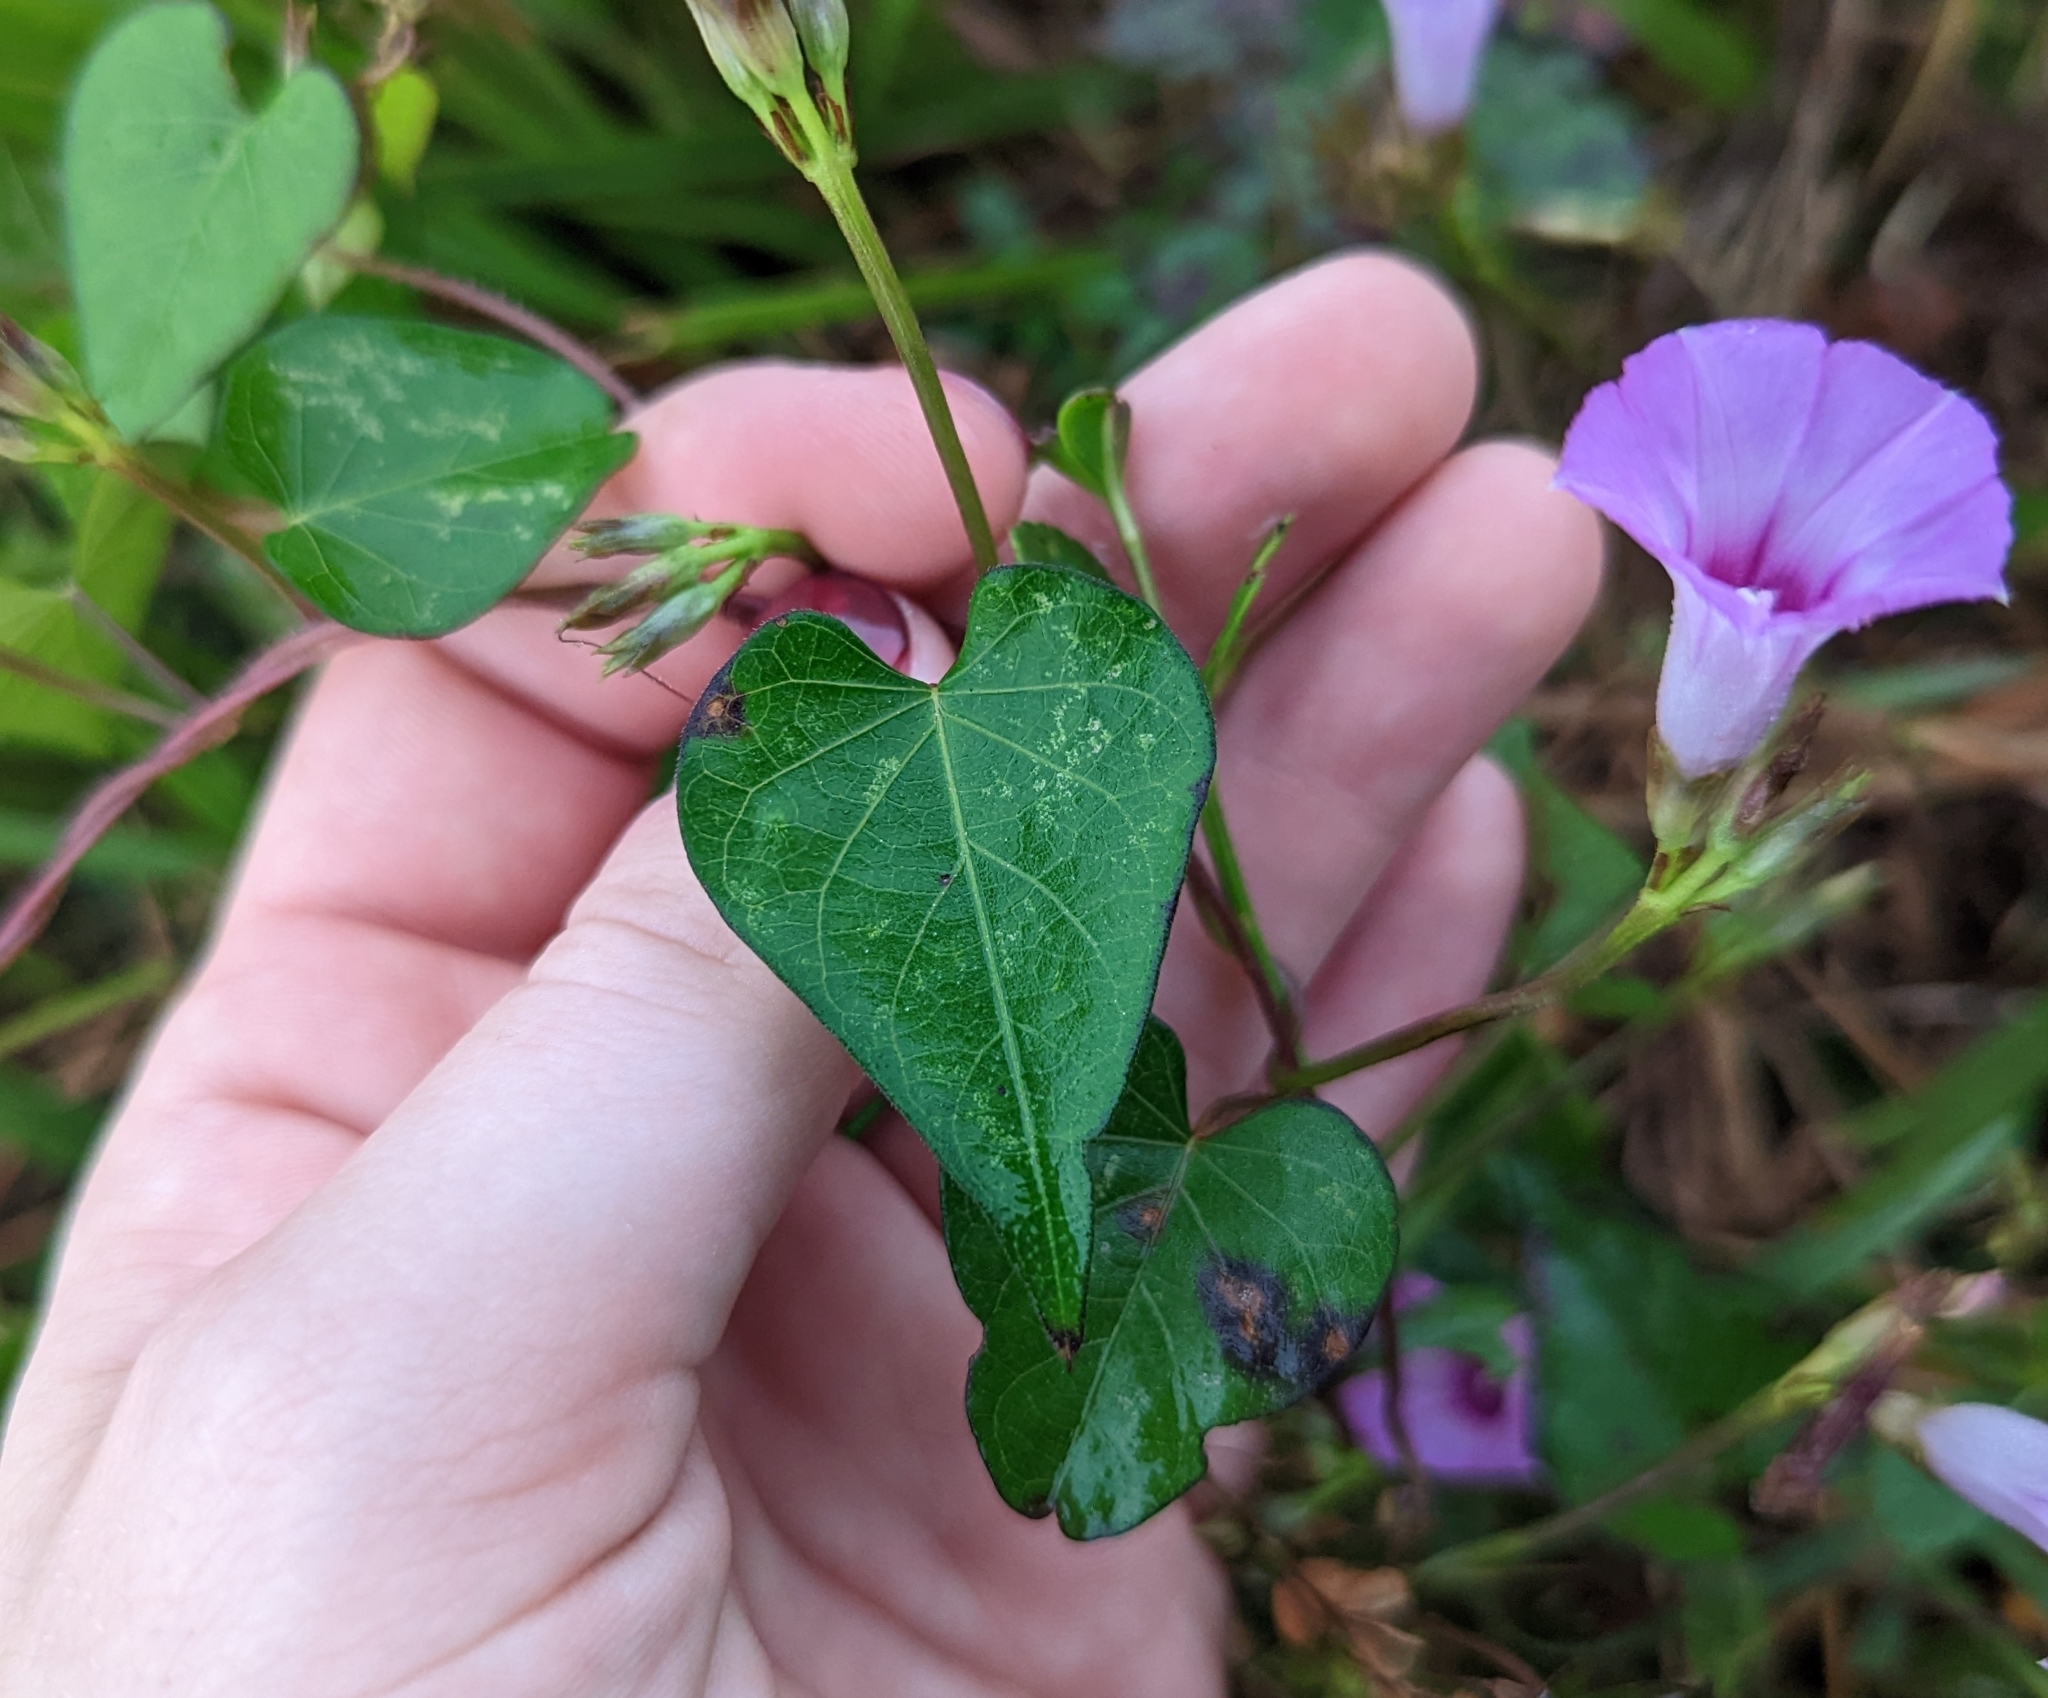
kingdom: Plantae
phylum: Tracheophyta
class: Magnoliopsida
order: Solanales
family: Convolvulaceae
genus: Ipomoea
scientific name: Ipomoea triloba
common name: Little-bell
